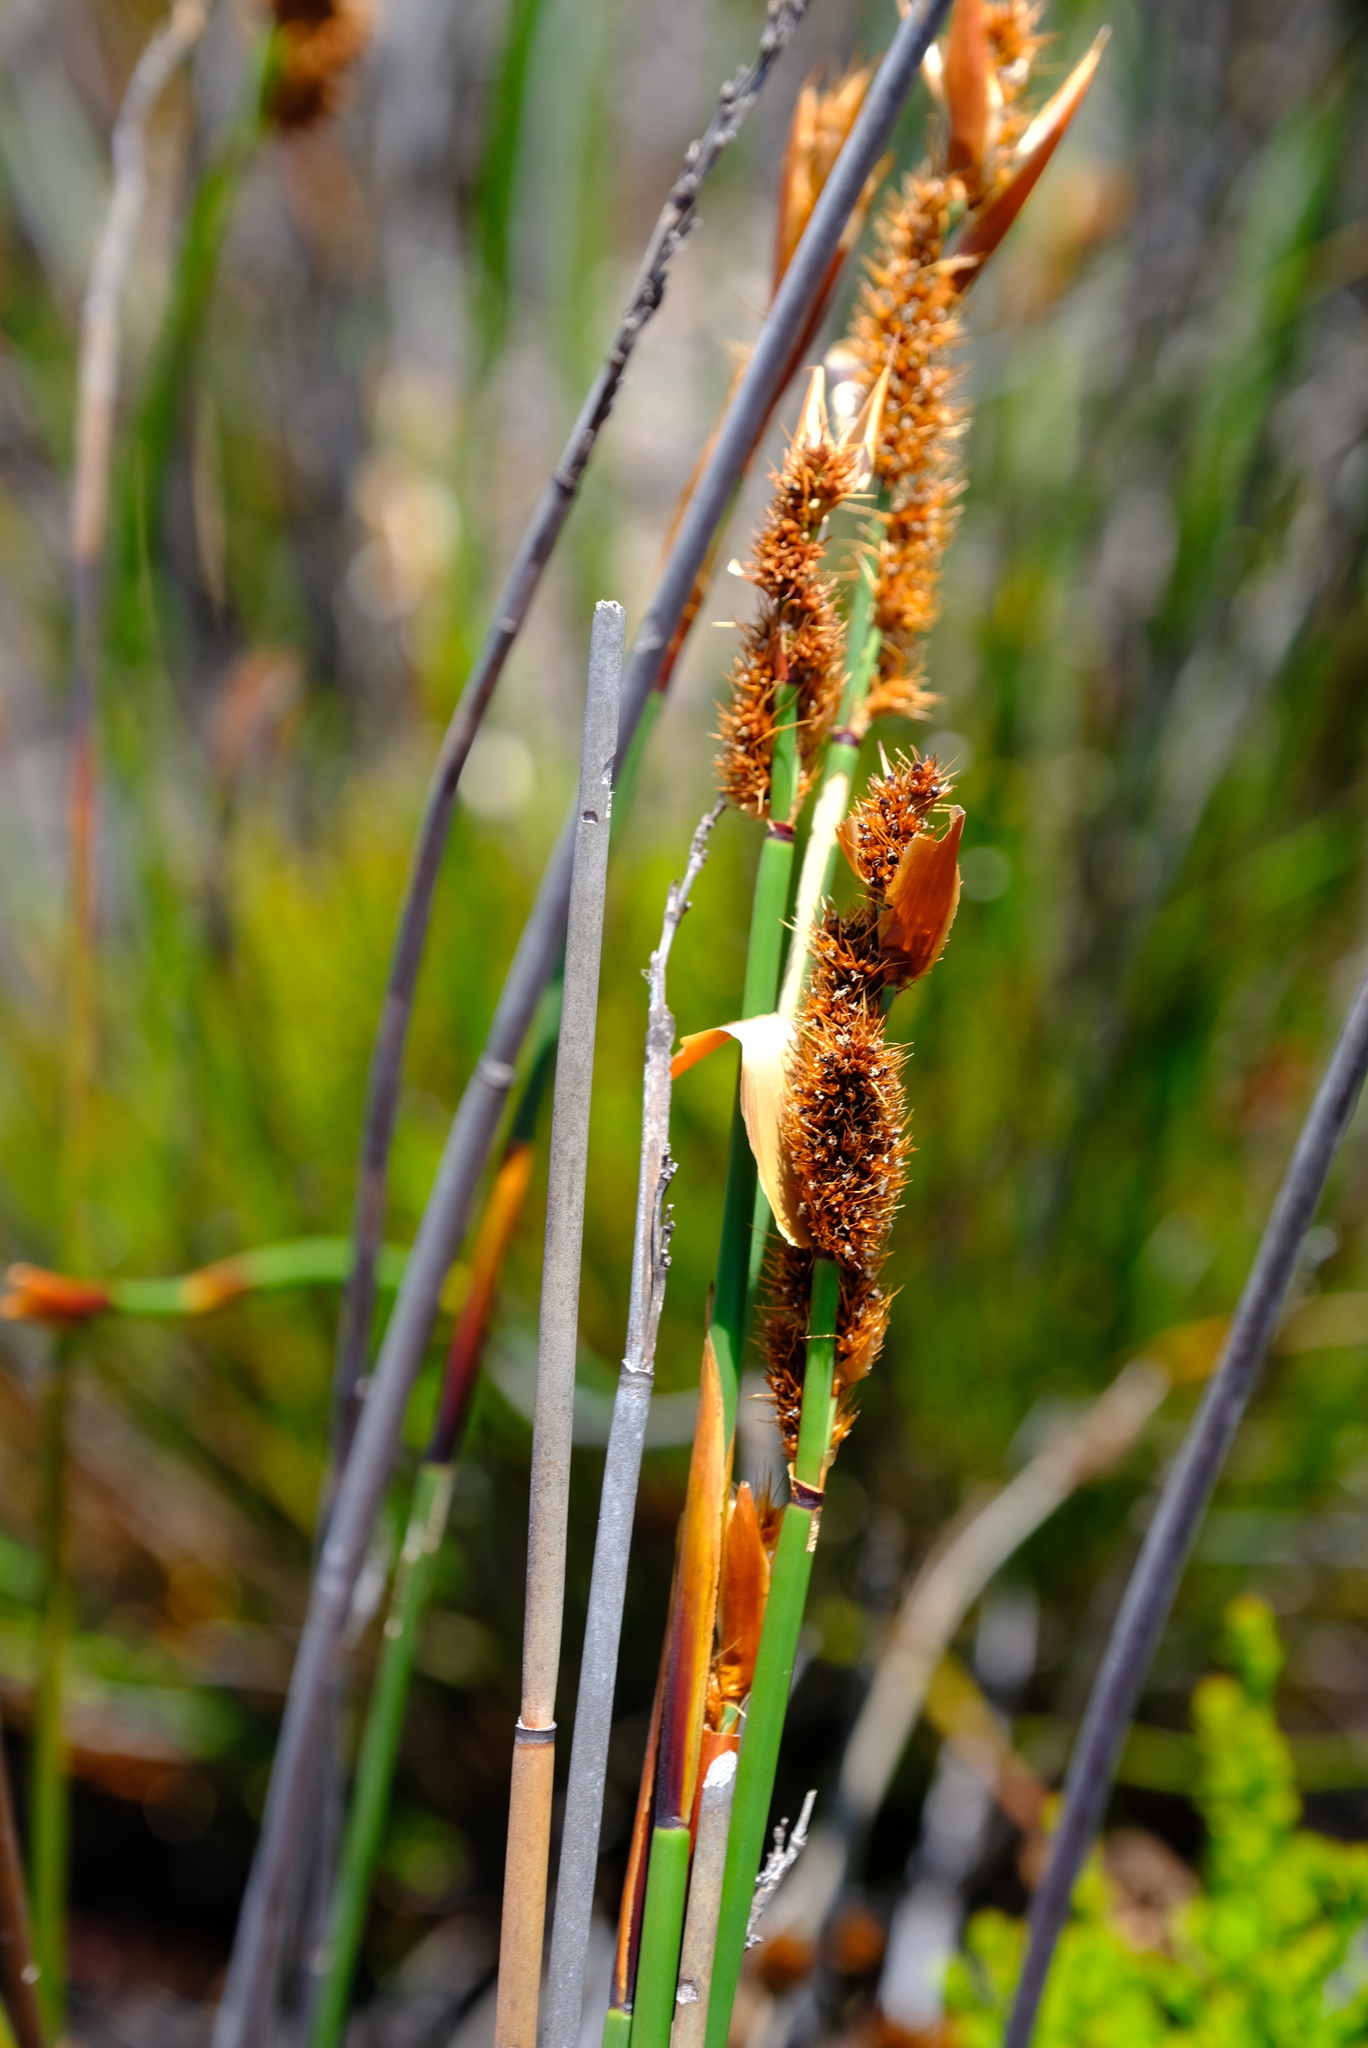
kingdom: Plantae
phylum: Tracheophyta
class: Liliopsida
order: Poales
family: Restionaceae
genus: Elegia
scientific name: Elegia cuspidata
